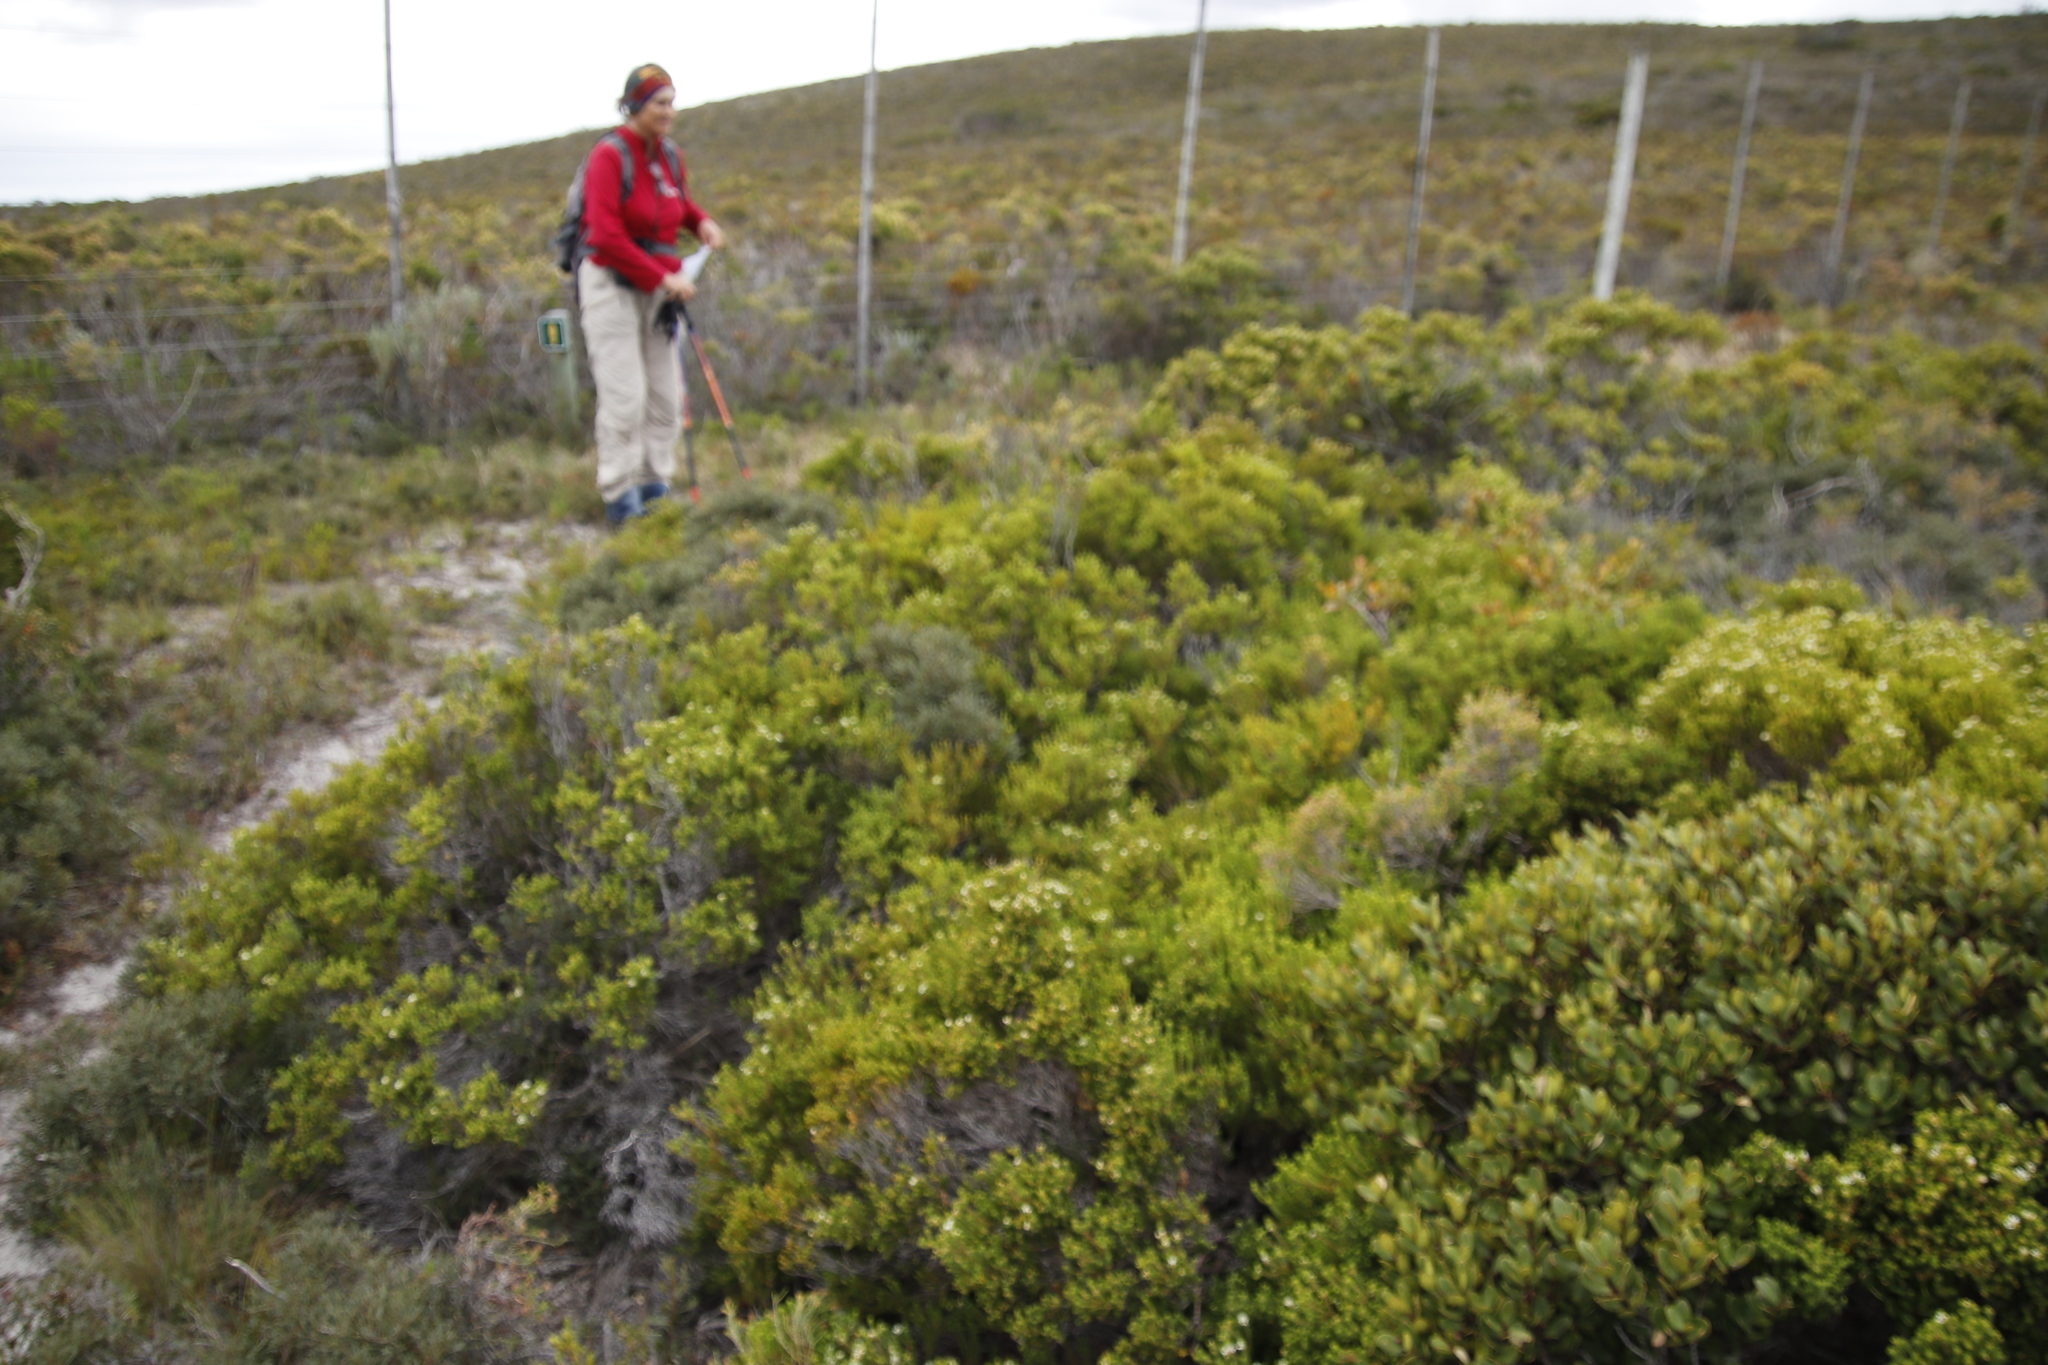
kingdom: Plantae
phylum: Tracheophyta
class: Magnoliopsida
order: Sapindales
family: Rutaceae
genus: Diosma
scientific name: Diosma guthriei
